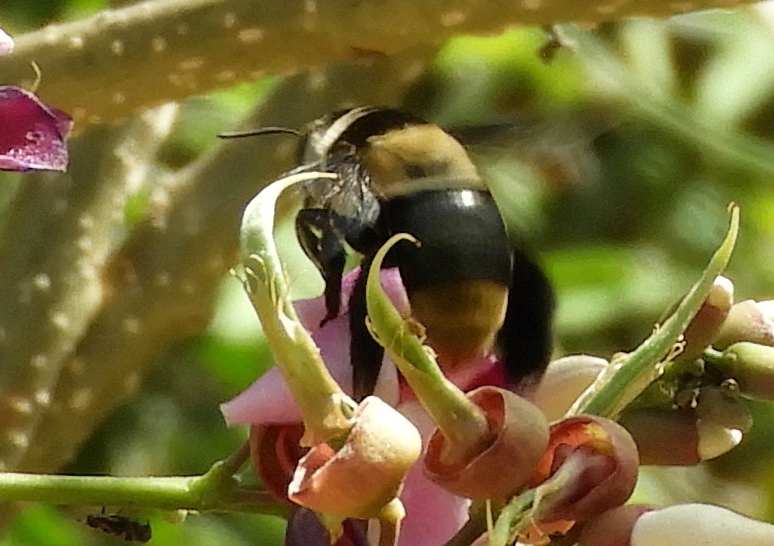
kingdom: Animalia
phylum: Arthropoda
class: Insecta
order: Hymenoptera
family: Apidae
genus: Centris
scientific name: Centris flavofasciata
